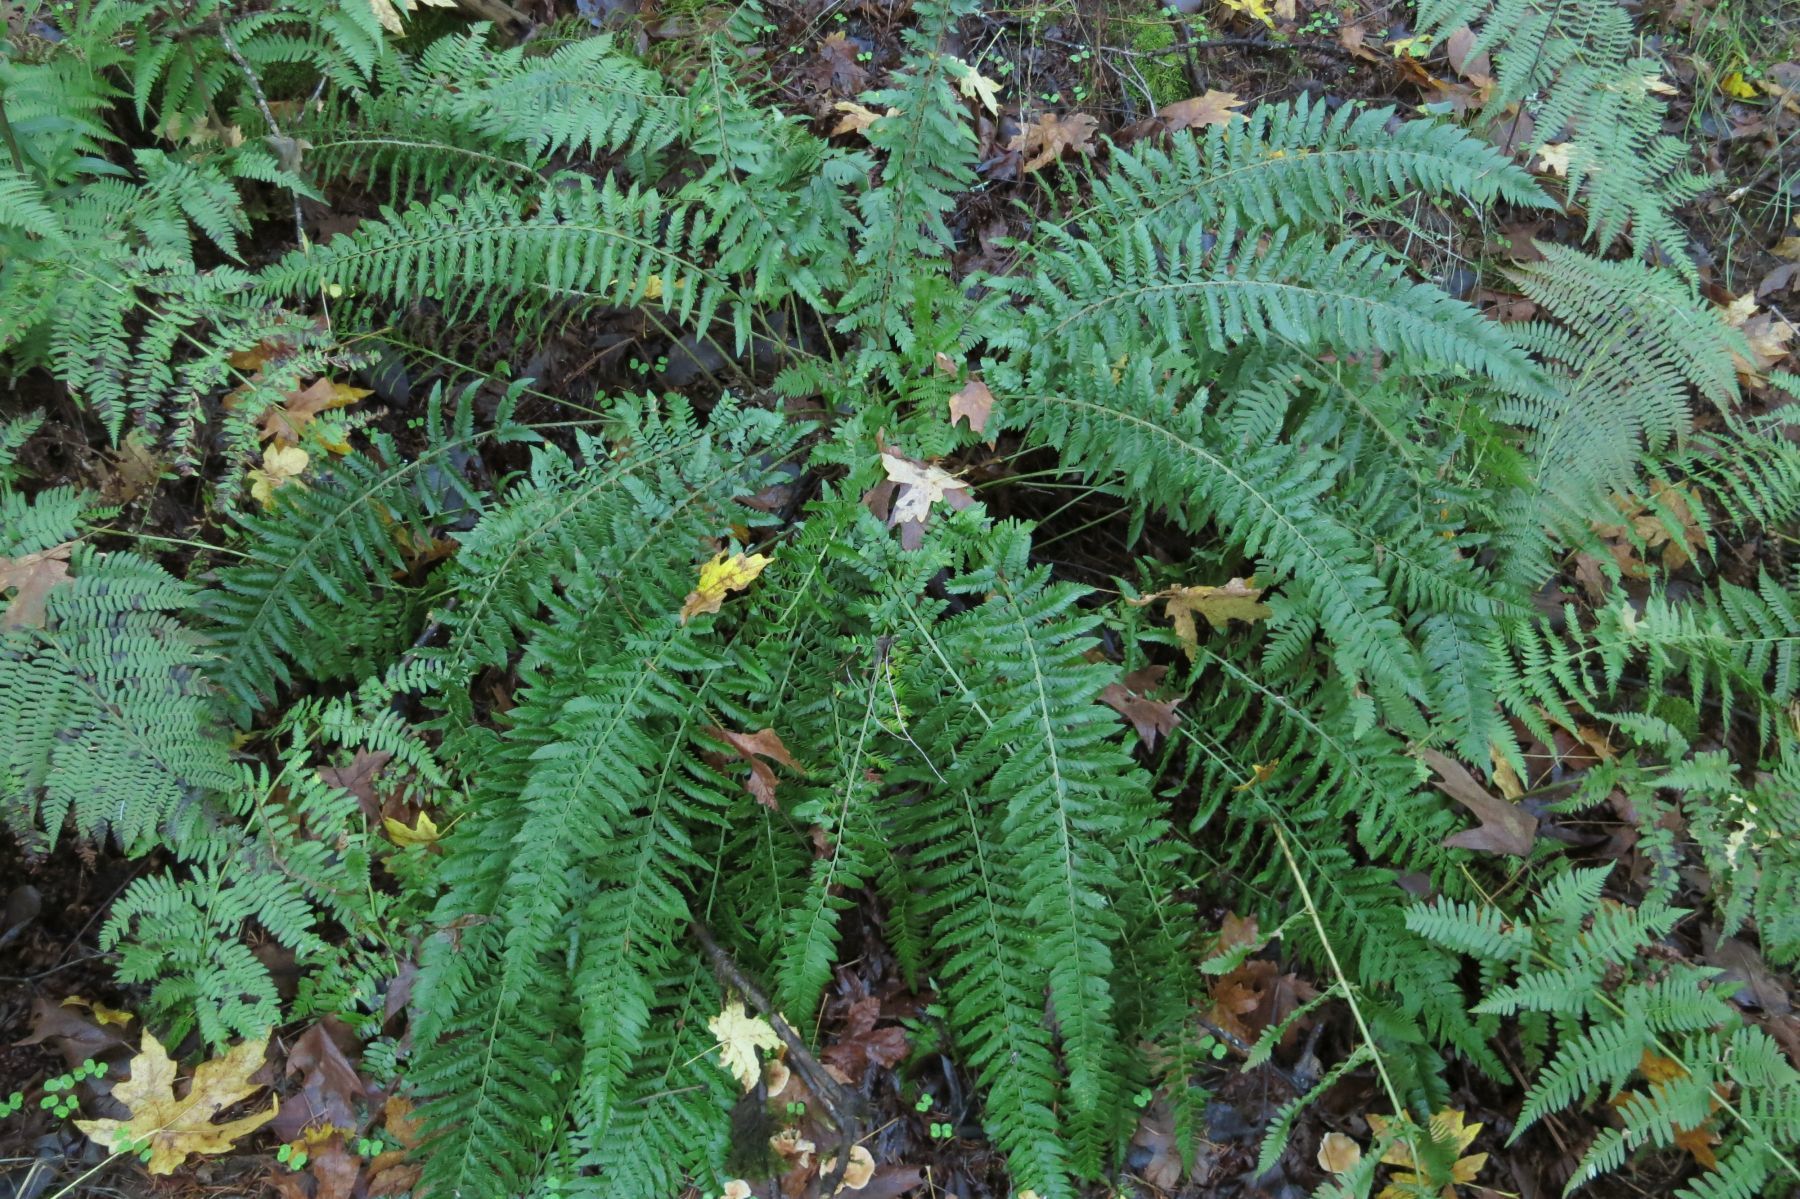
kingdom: Plantae
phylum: Tracheophyta
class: Polypodiopsida
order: Polypodiales
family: Dryopteridaceae
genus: Polystichum
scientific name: Polystichum californicum
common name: California sword fern
